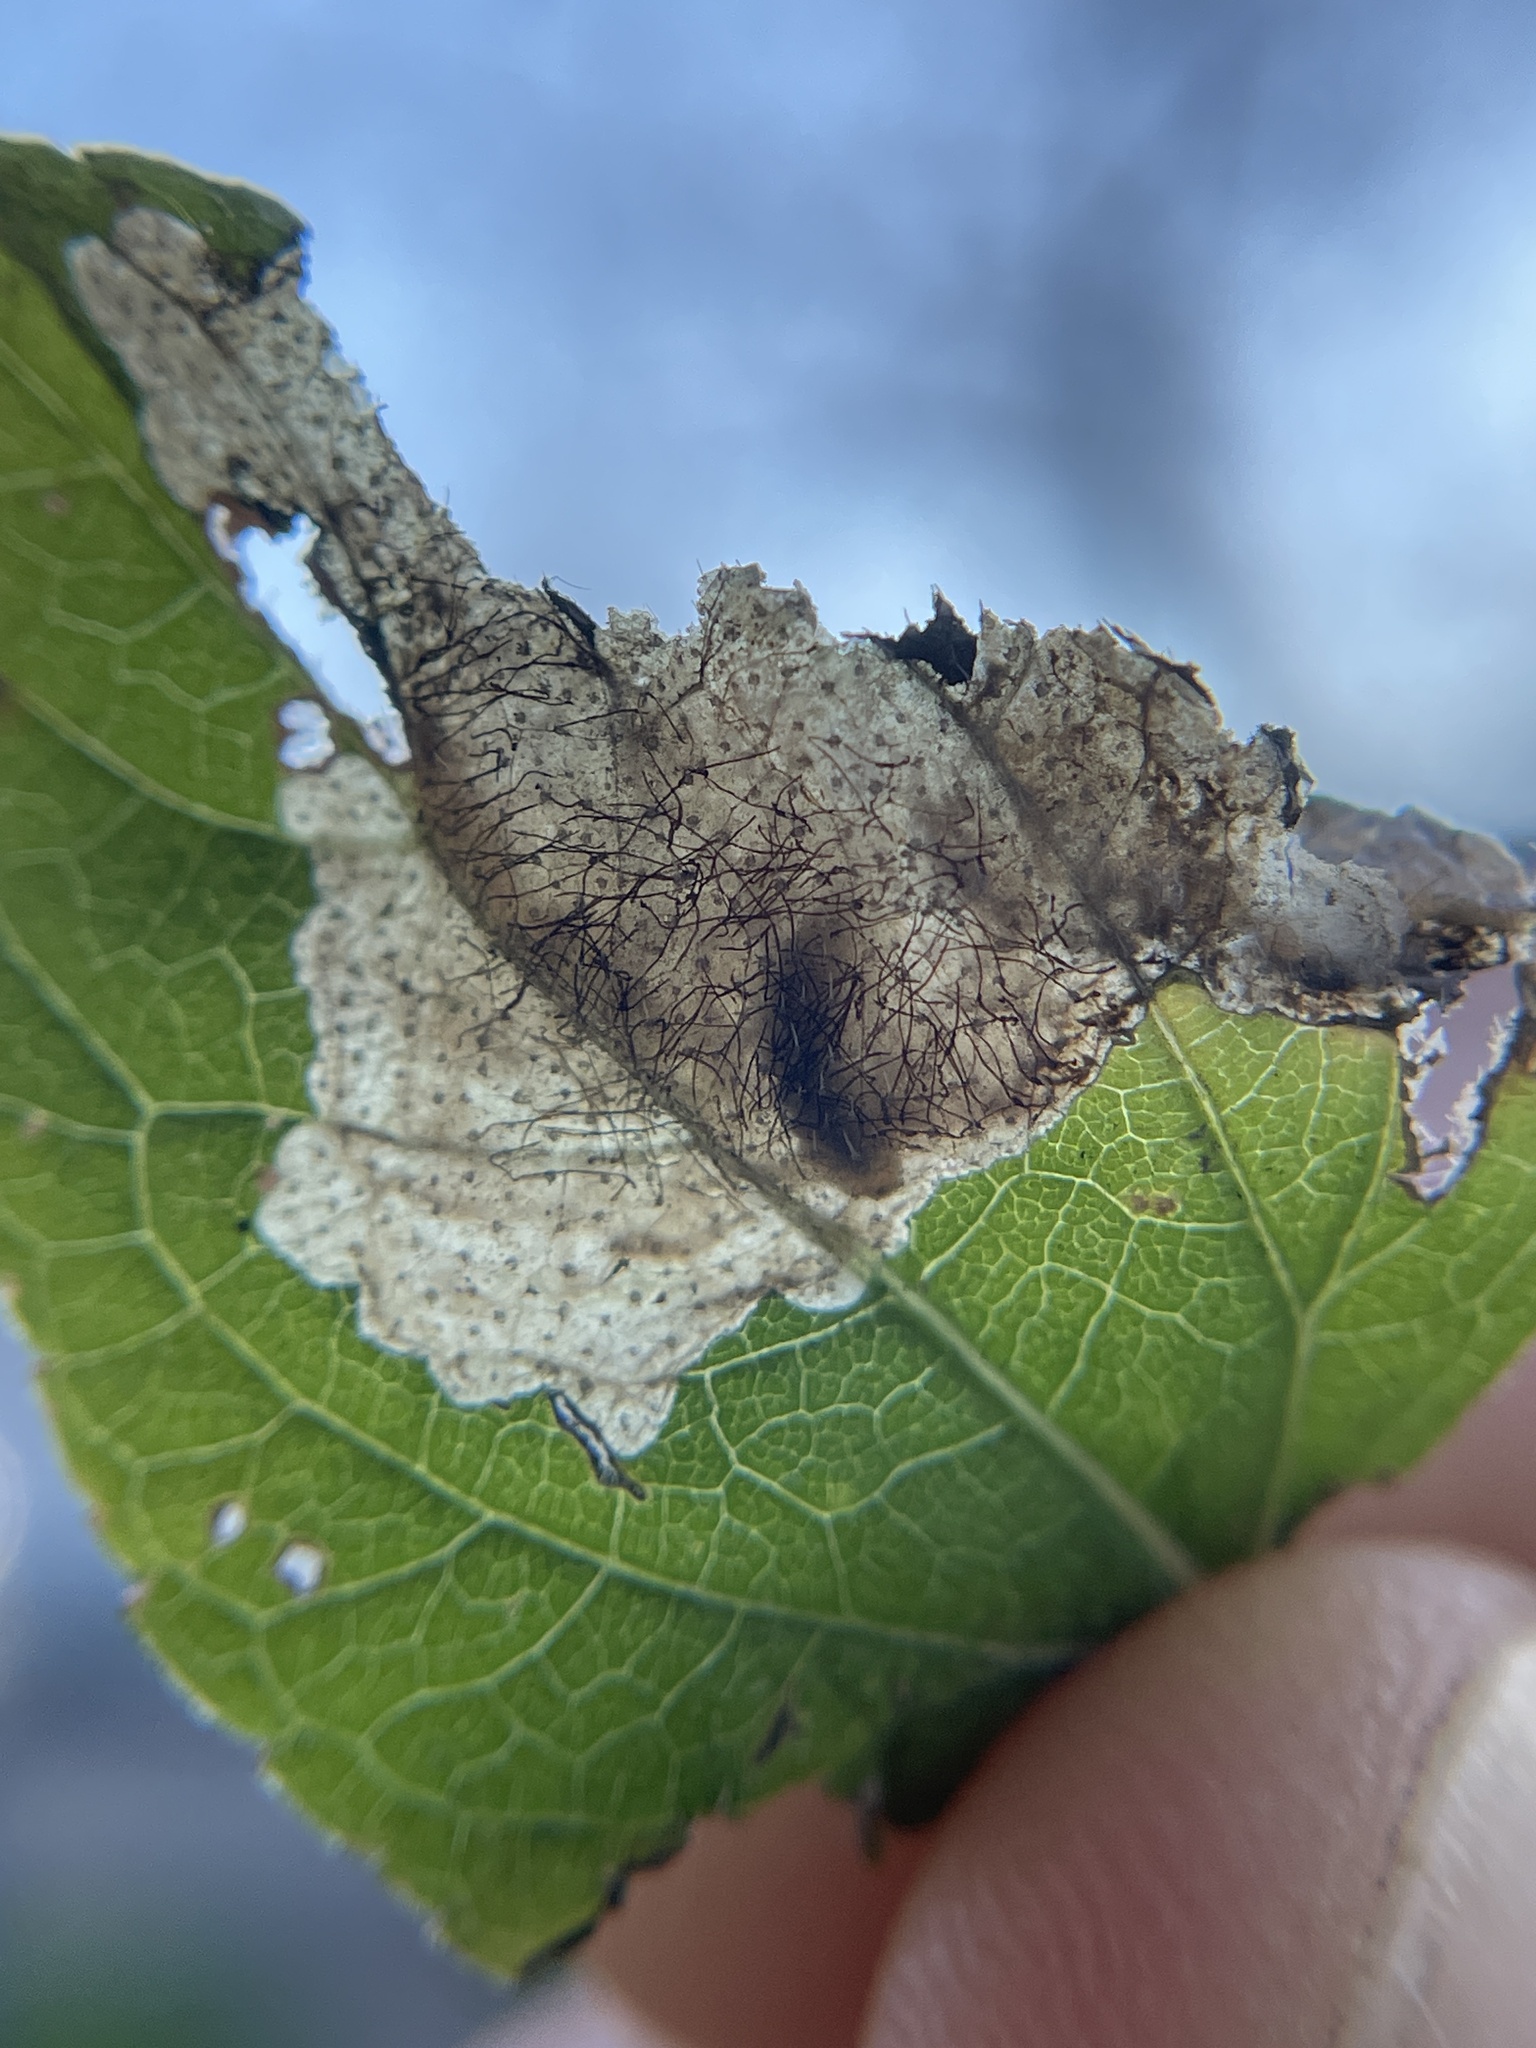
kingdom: Animalia
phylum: Arthropoda
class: Insecta
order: Coleoptera
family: Chrysomelidae
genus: Sumitrosis
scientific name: Sumitrosis inaequalis
